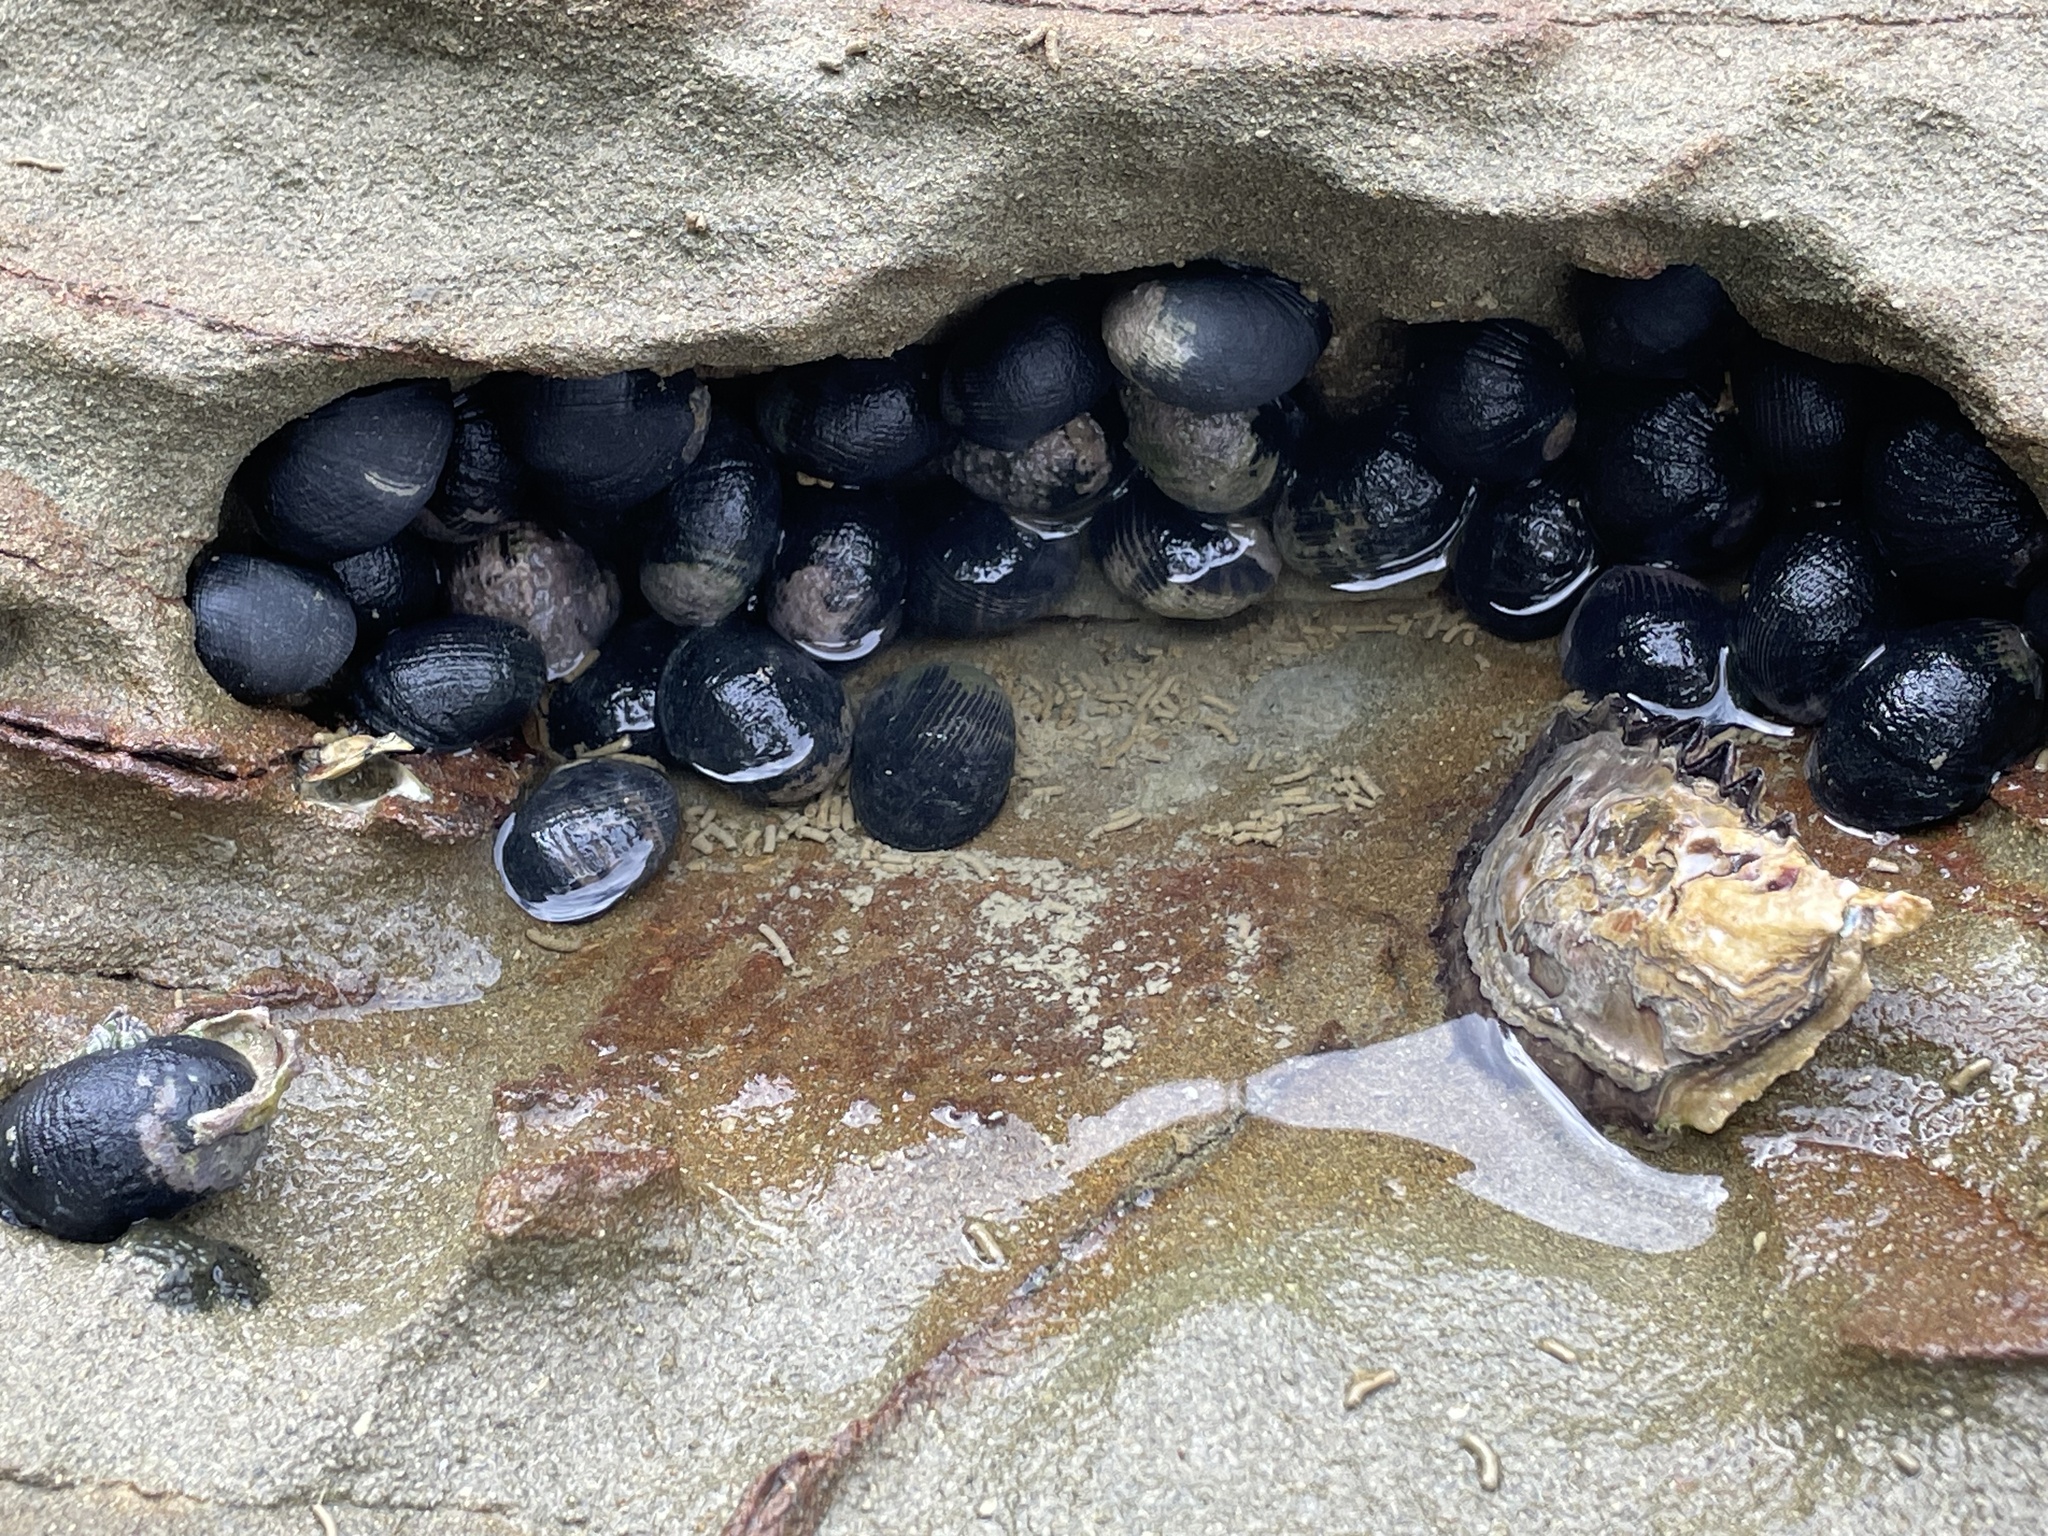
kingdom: Animalia
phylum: Mollusca
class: Gastropoda
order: Cycloneritida
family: Neritidae
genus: Nerita
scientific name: Nerita melanotragus
